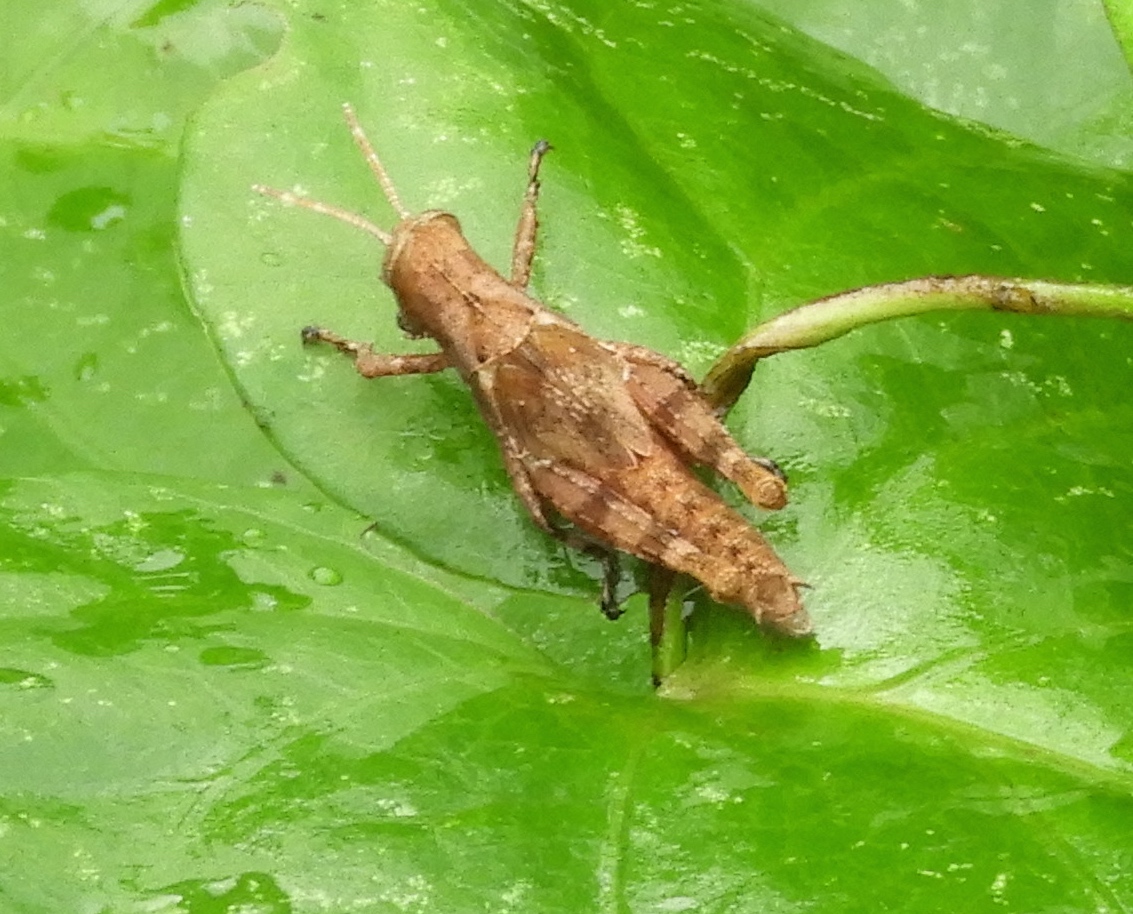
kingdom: Animalia
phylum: Arthropoda
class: Insecta
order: Orthoptera
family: Acrididae
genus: Abracris
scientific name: Abracris flavolineata
